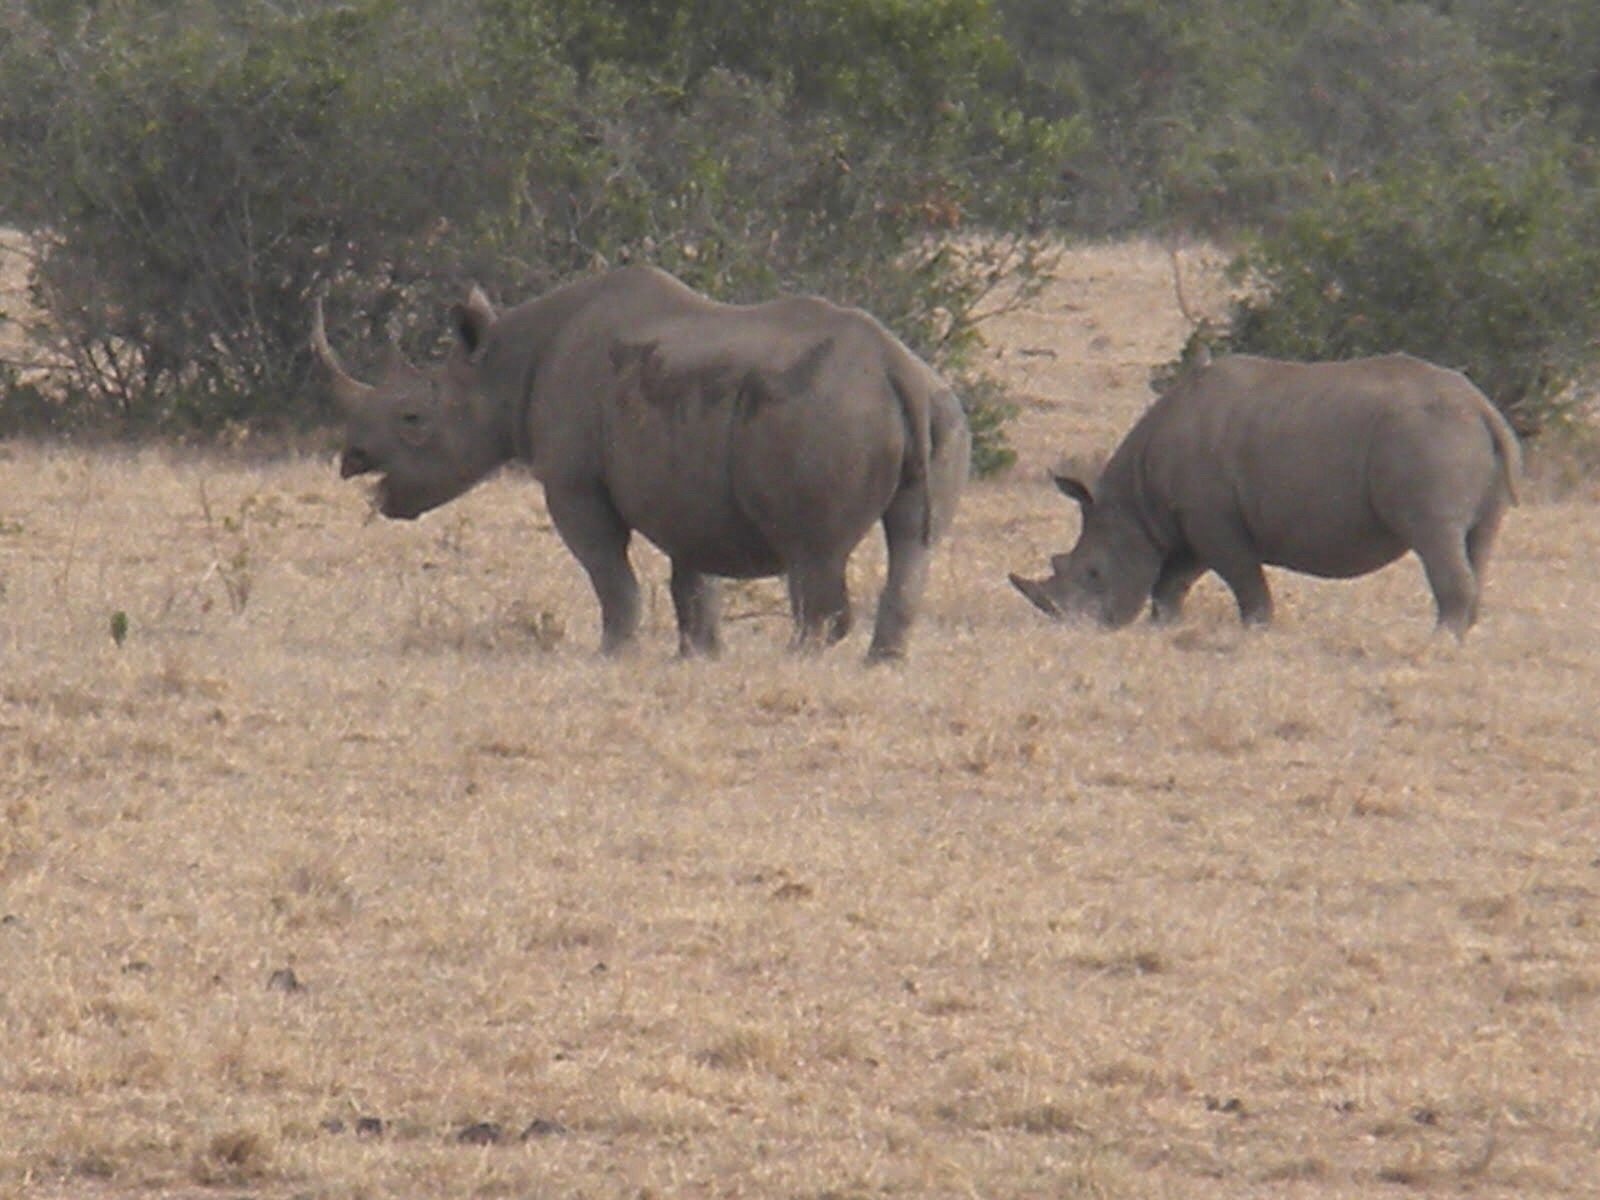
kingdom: Animalia
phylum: Chordata
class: Mammalia
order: Perissodactyla
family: Rhinocerotidae
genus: Diceros
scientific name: Diceros bicornis
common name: Black rhinoceros
